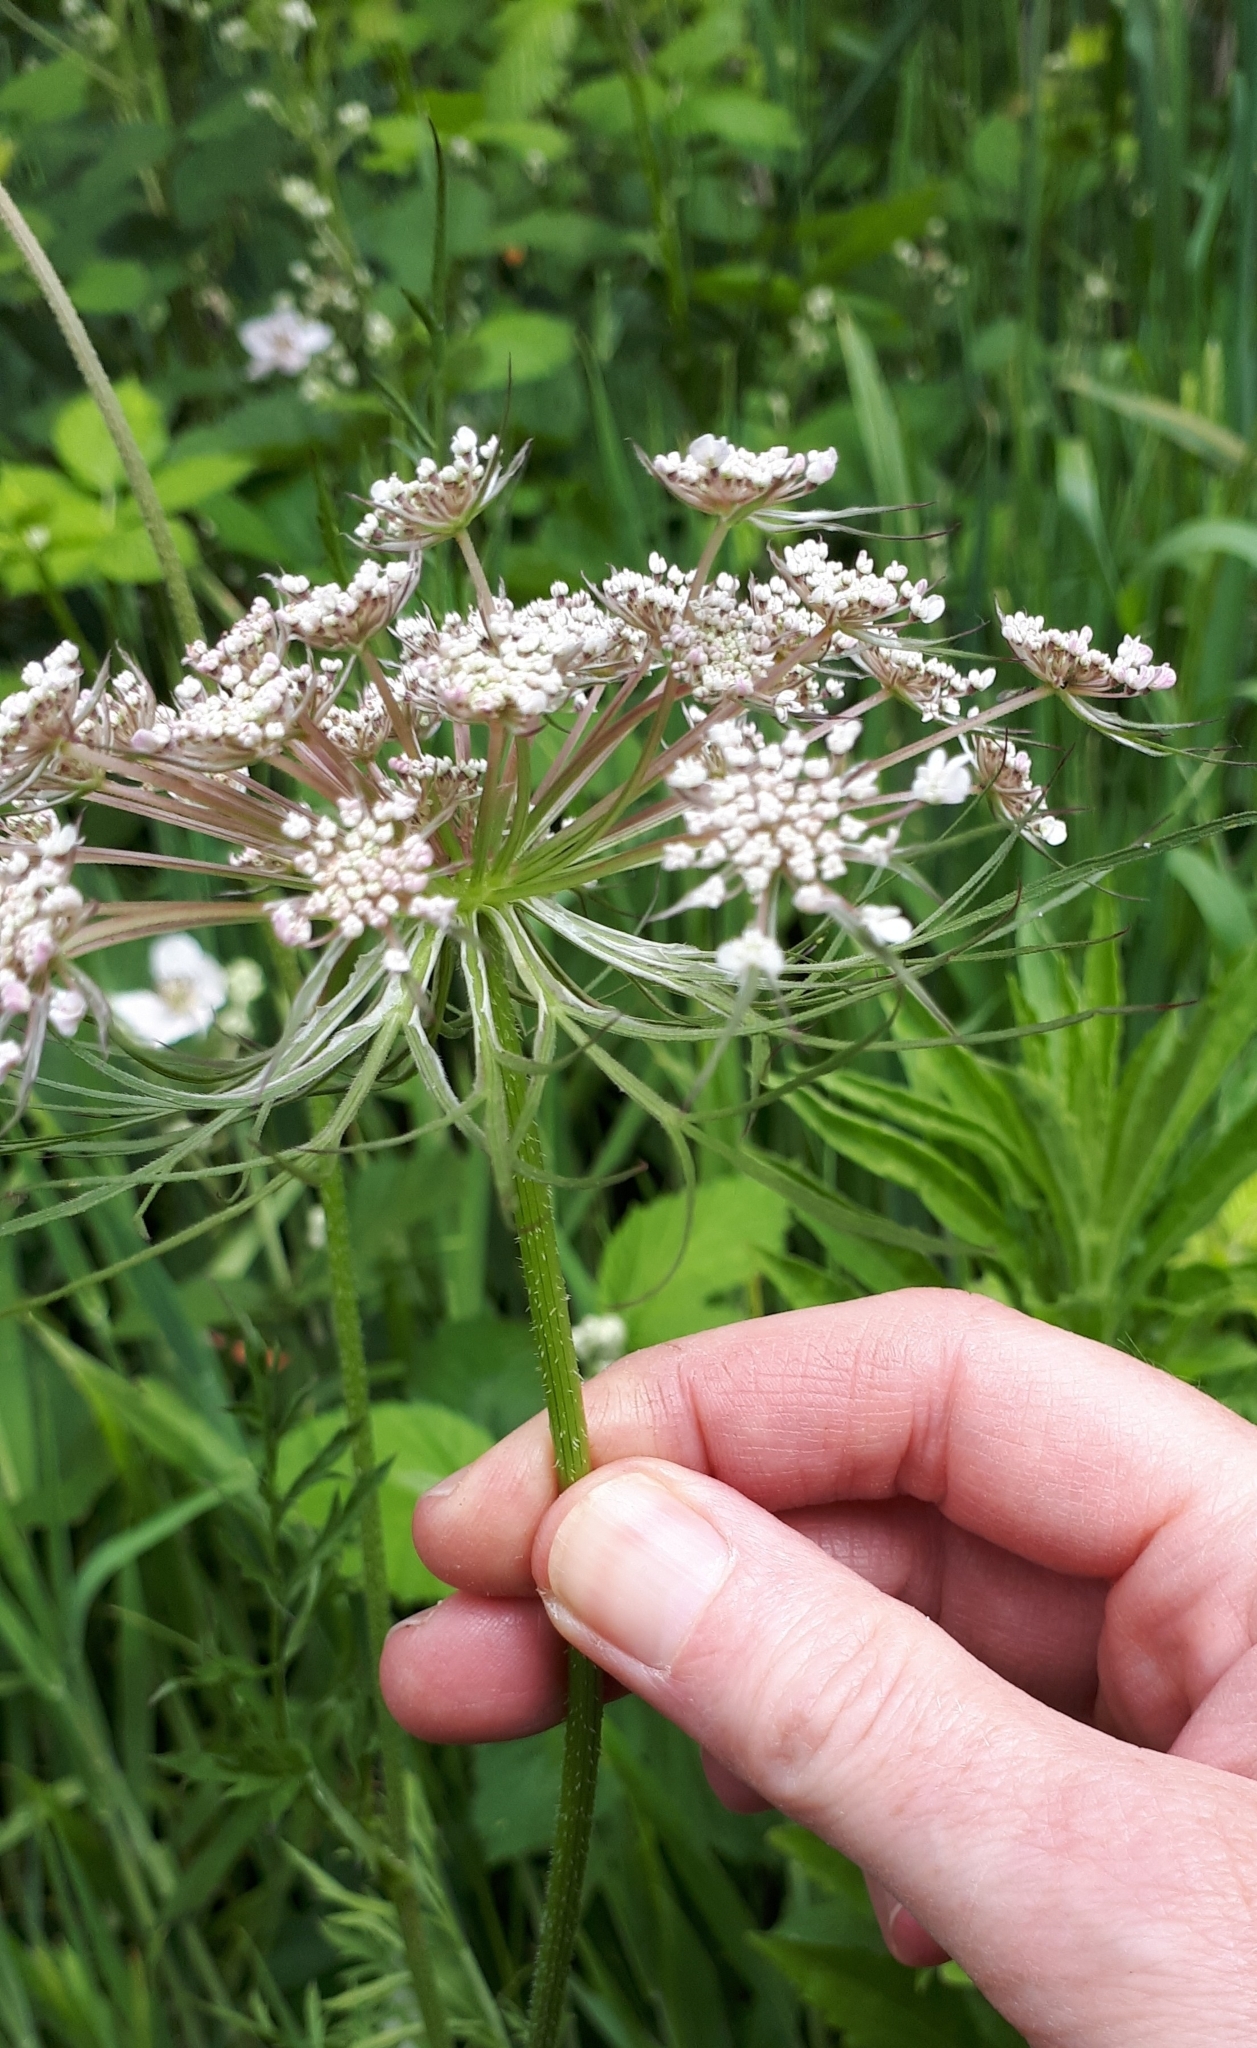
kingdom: Plantae
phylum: Tracheophyta
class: Magnoliopsida
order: Apiales
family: Apiaceae
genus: Daucus
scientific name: Daucus carota
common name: Wild carrot
